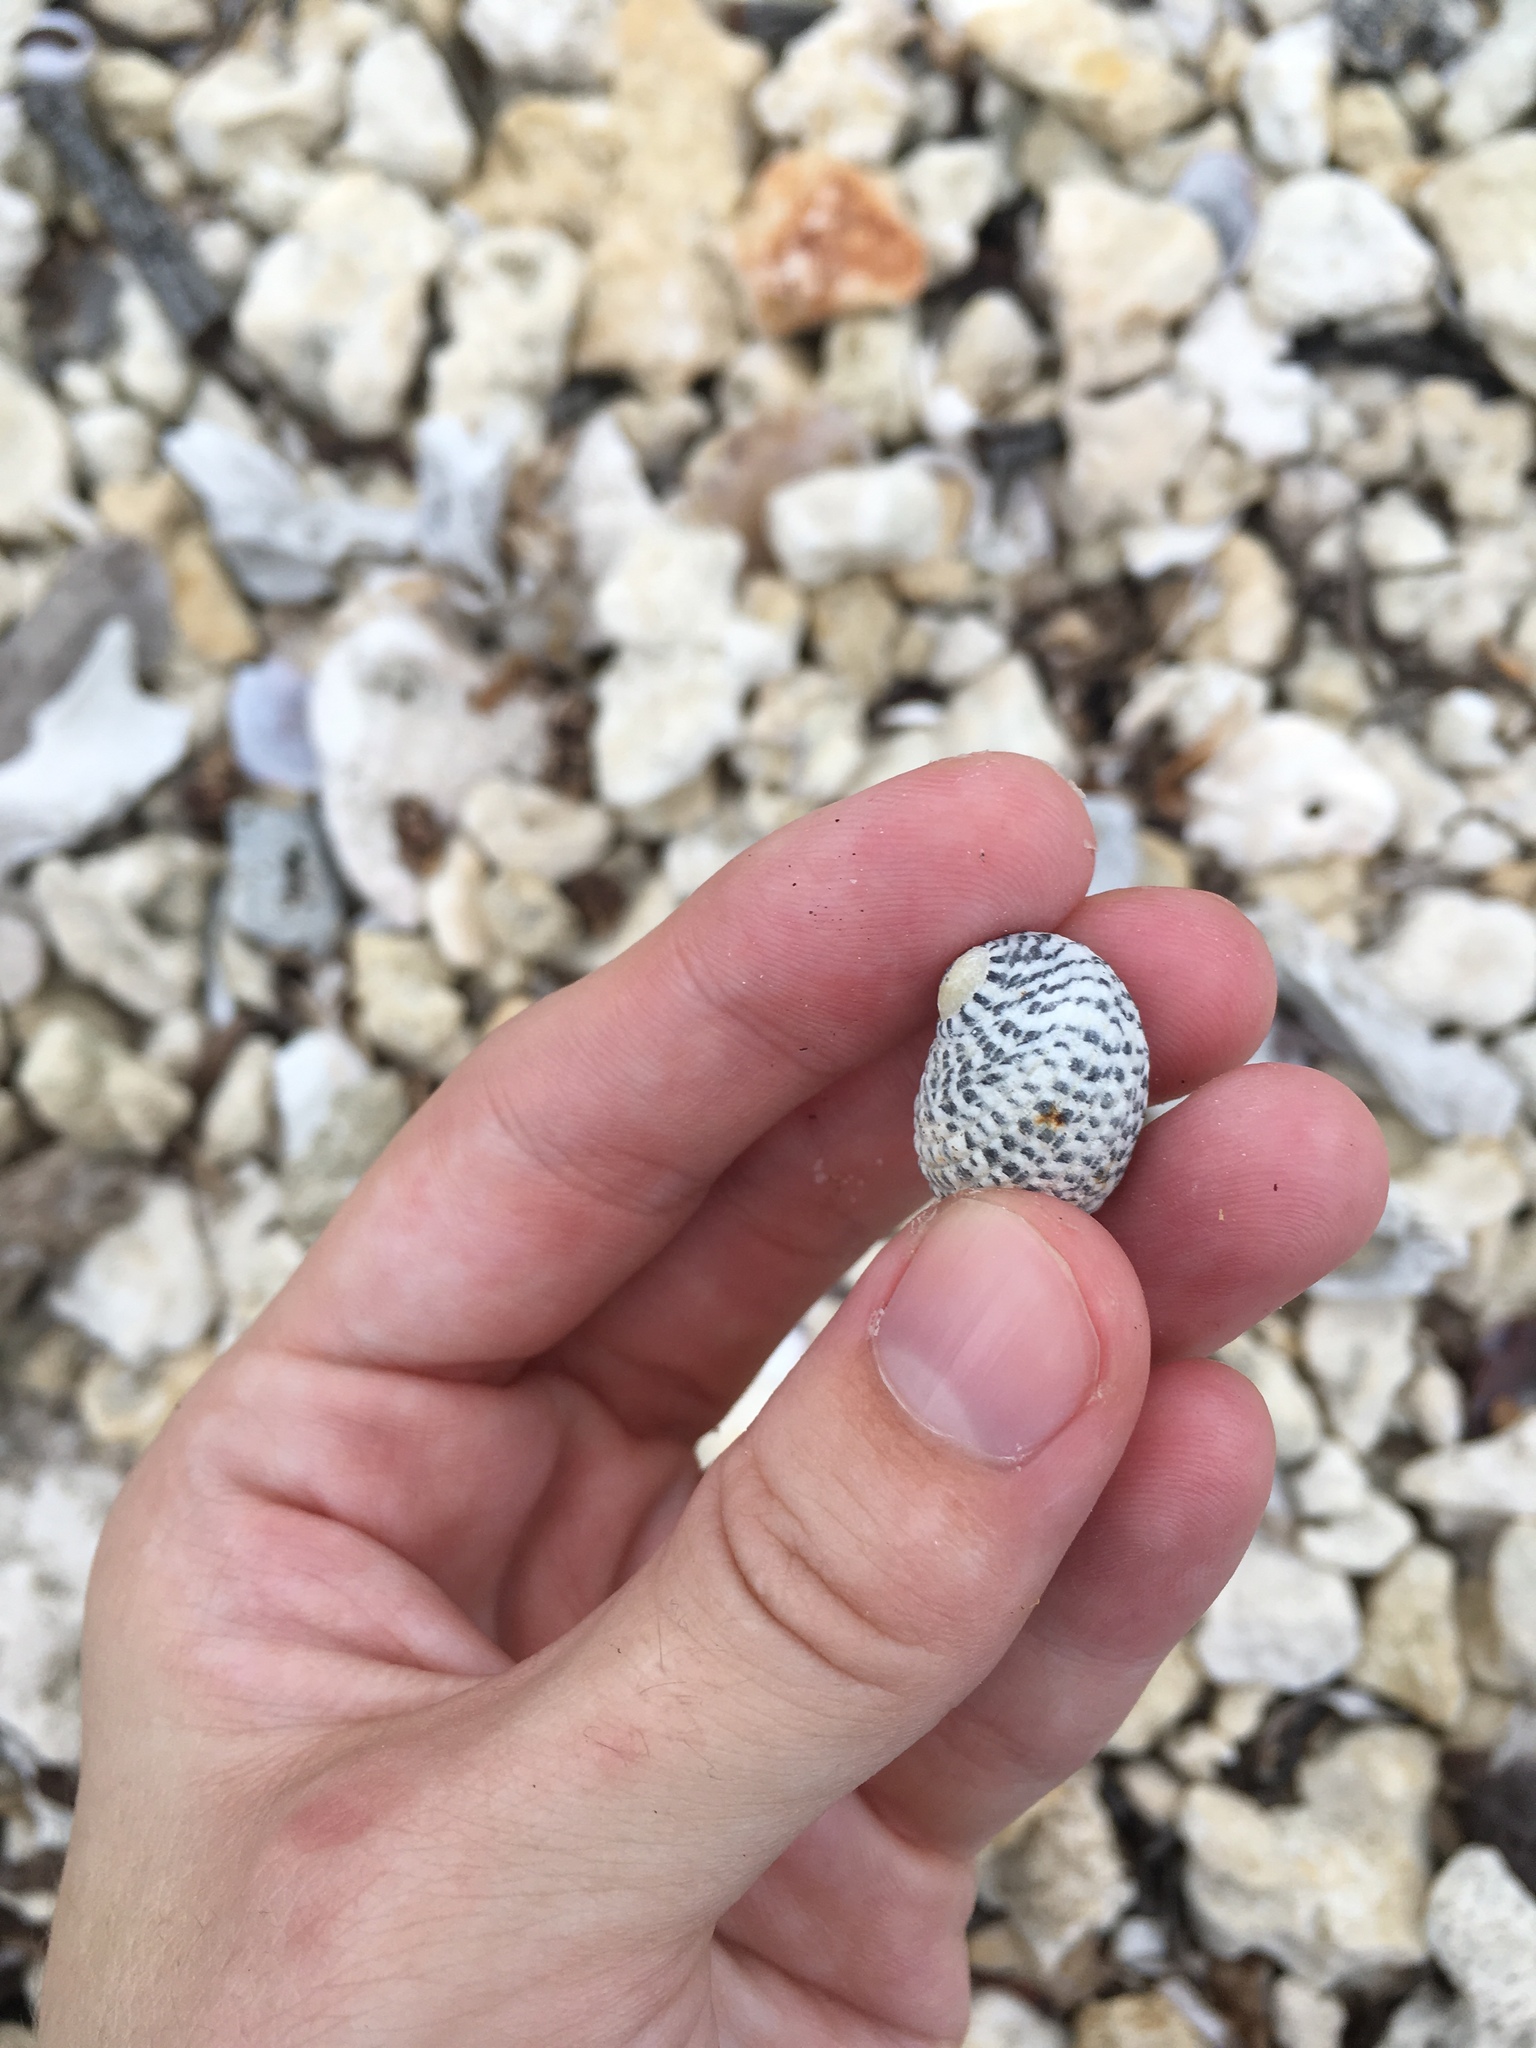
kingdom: Animalia
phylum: Mollusca
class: Gastropoda
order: Cycloneritida
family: Neritidae
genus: Nerita
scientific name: Nerita tessellata
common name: Checkered nerite
